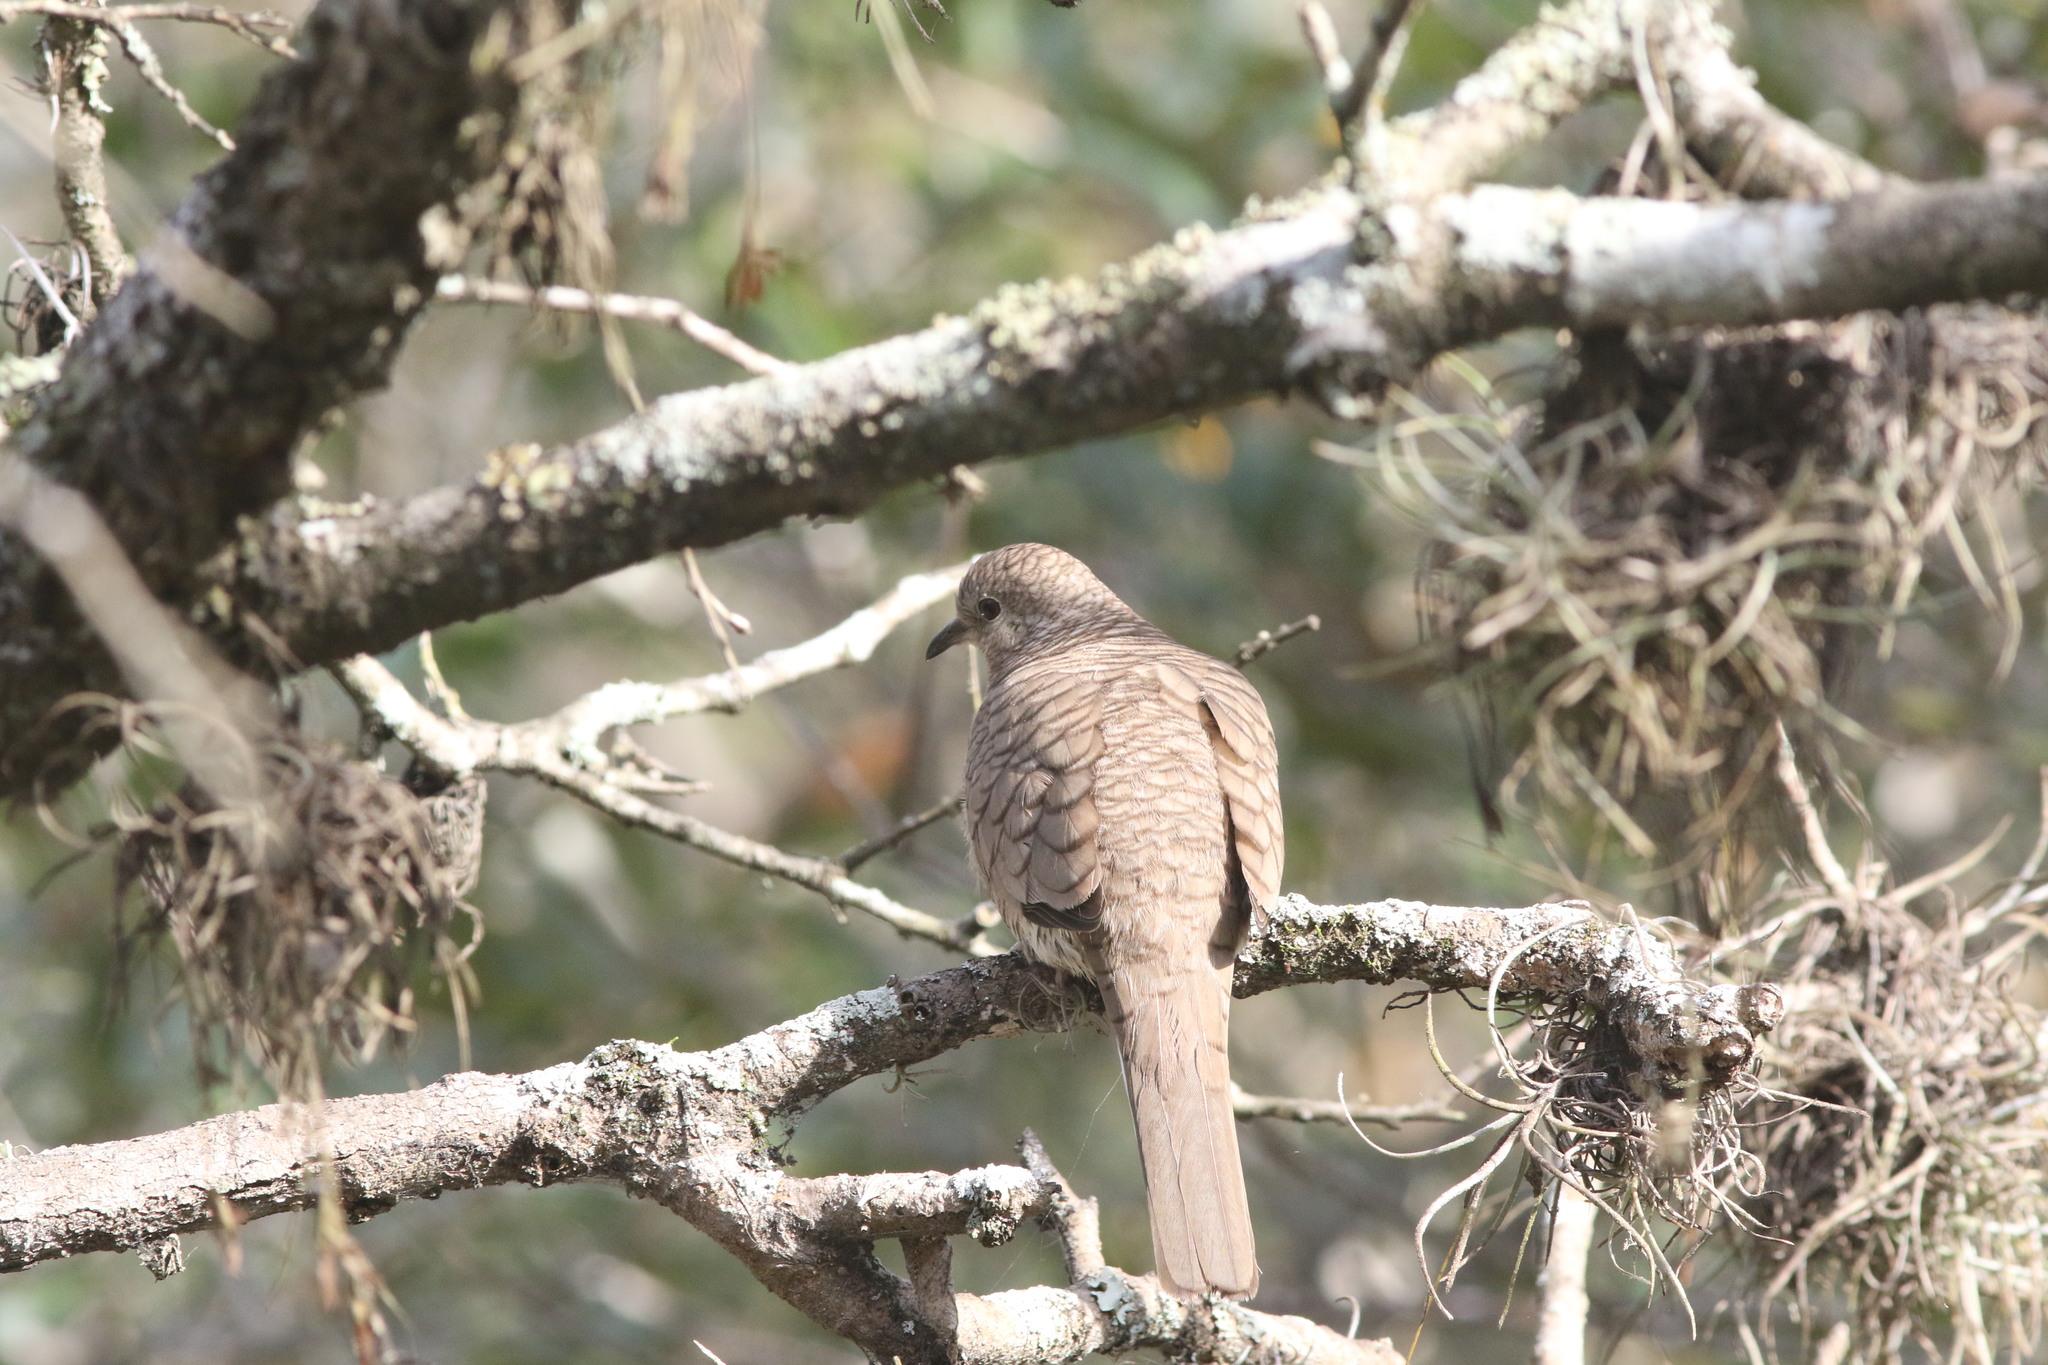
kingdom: Animalia
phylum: Chordata
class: Aves
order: Columbiformes
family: Columbidae
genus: Columbina
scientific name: Columbina inca
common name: Inca dove
